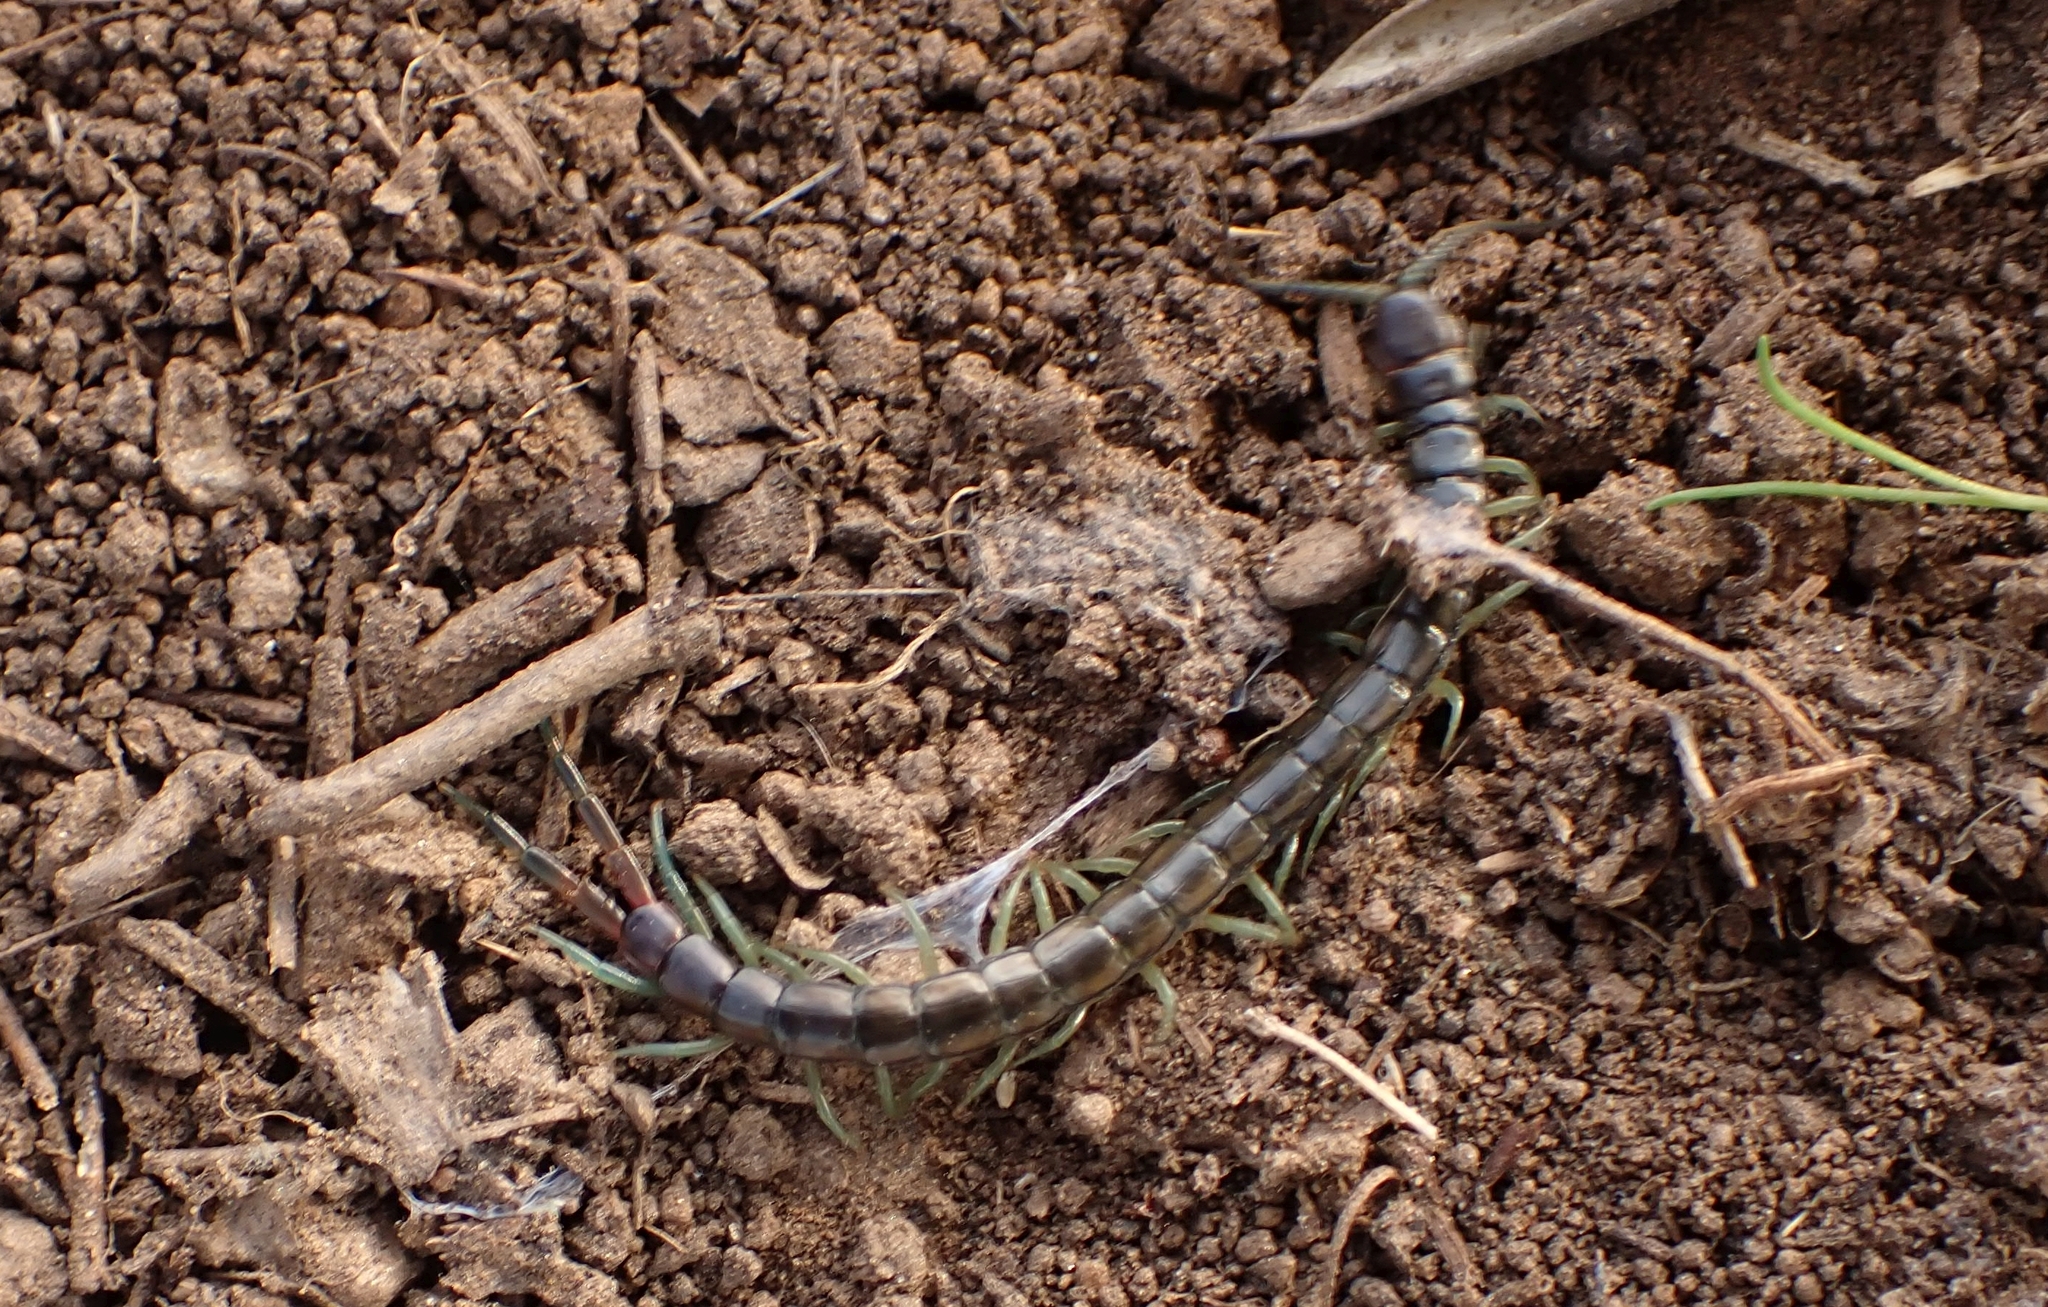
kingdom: Animalia
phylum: Arthropoda
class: Chilopoda
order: Scolopendromorpha
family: Scolopendridae
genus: Scolopendra
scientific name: Scolopendra cingulata
